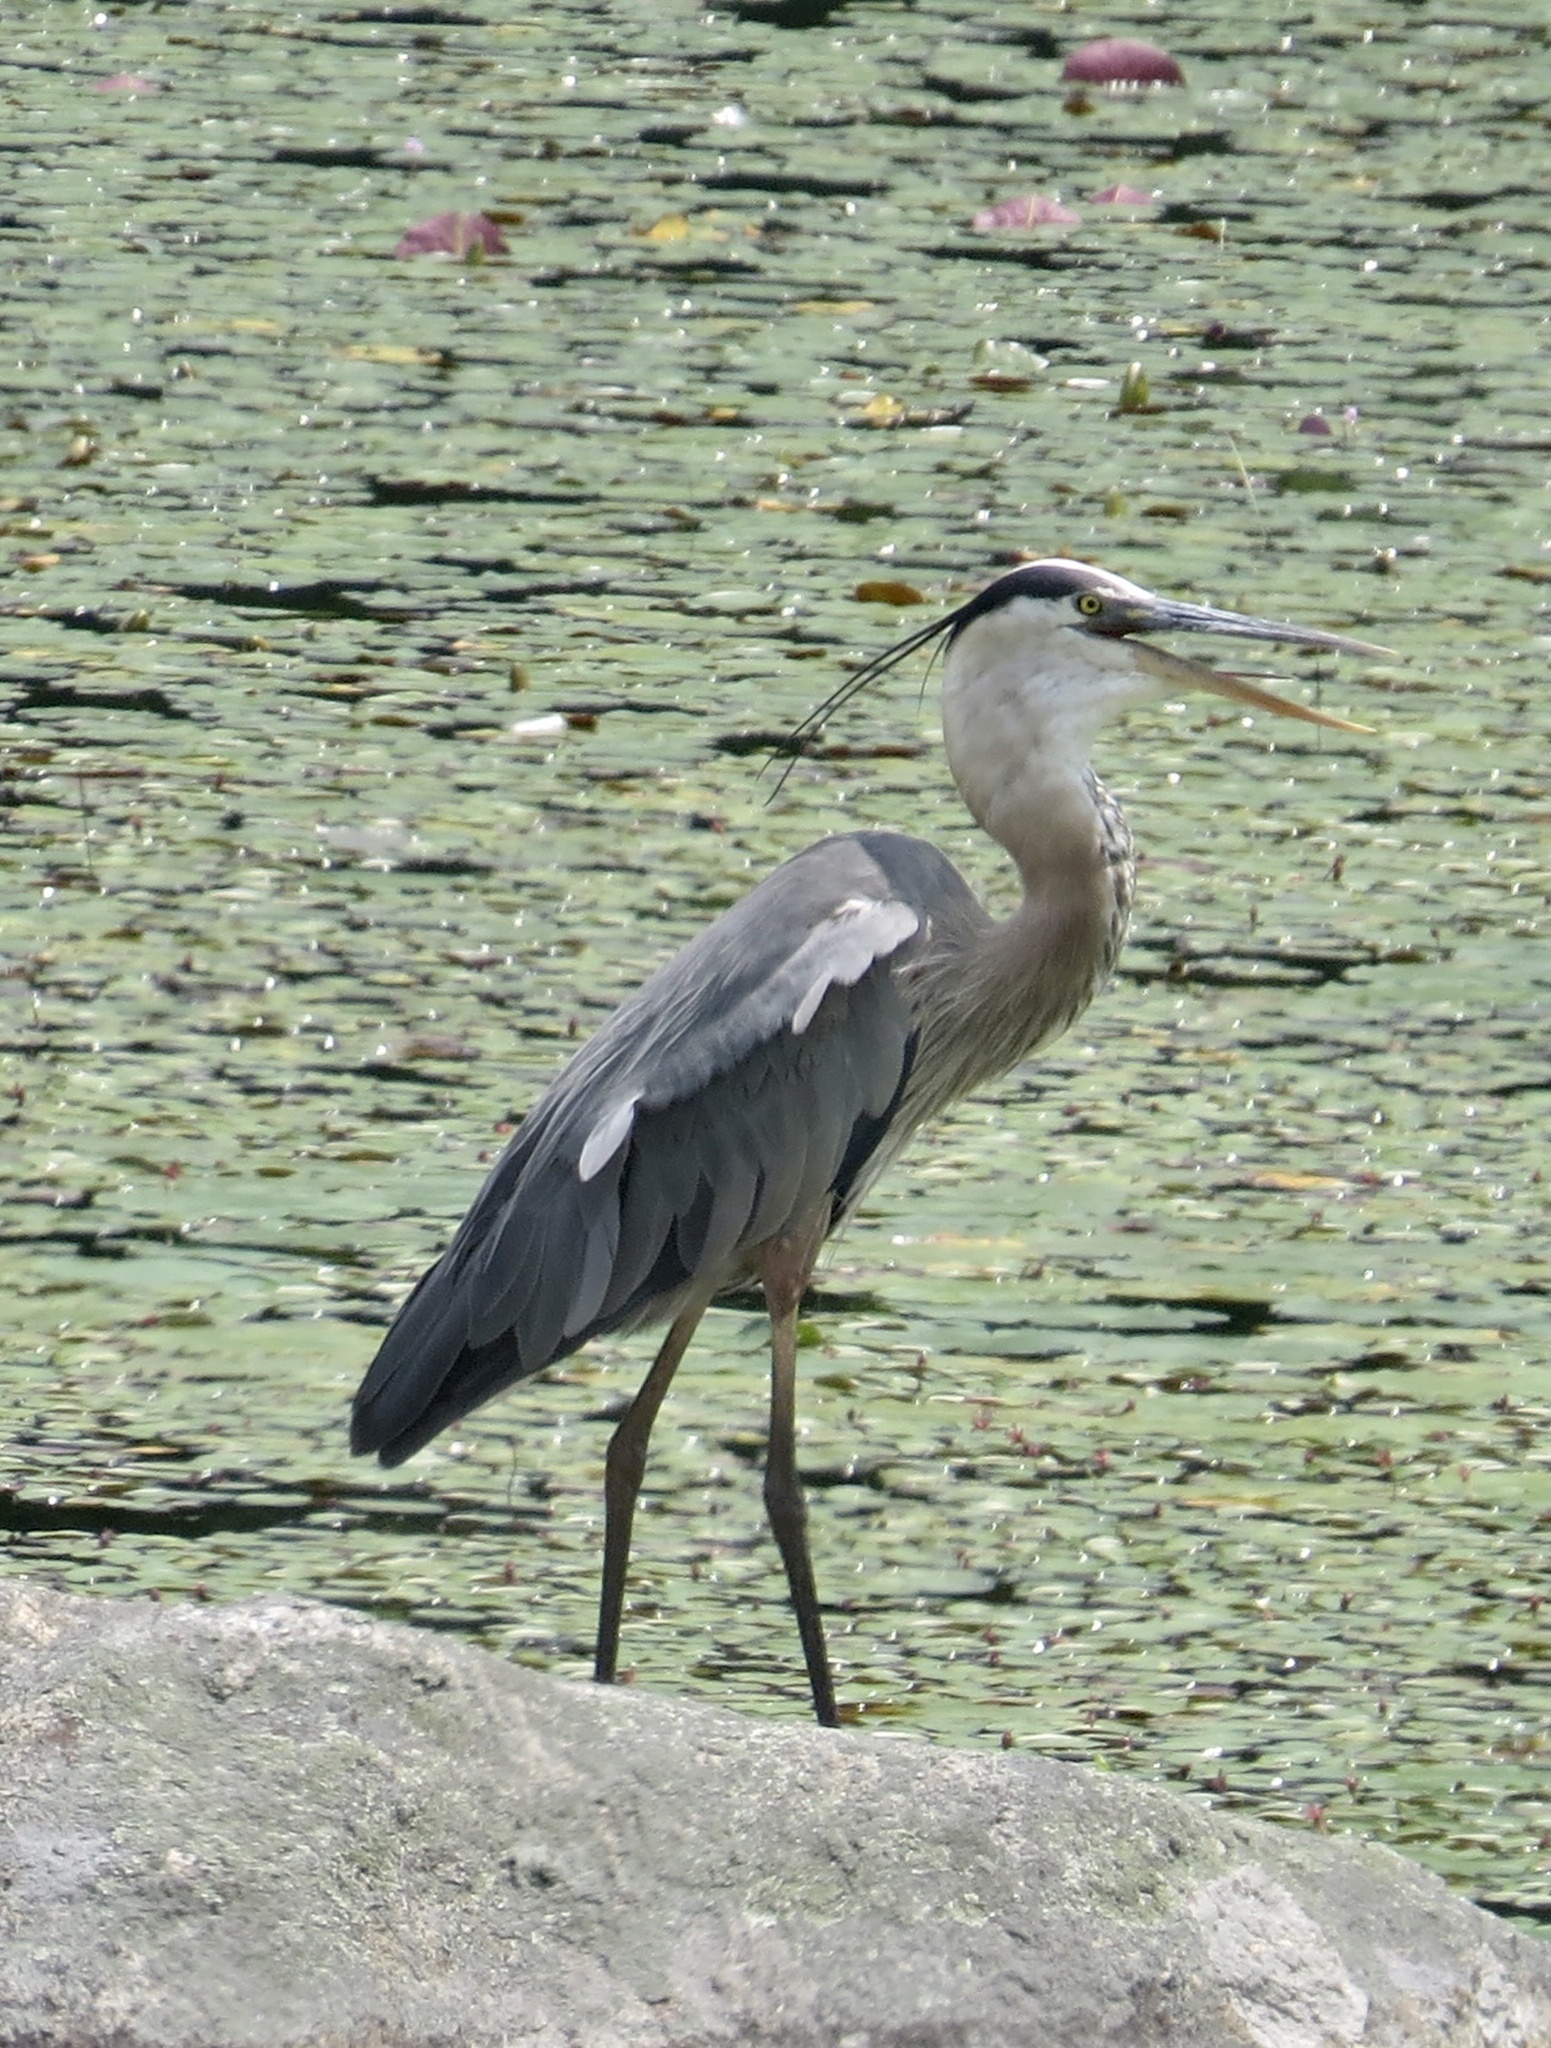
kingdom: Animalia
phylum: Chordata
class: Aves
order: Pelecaniformes
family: Ardeidae
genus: Ardea
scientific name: Ardea herodias
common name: Great blue heron
